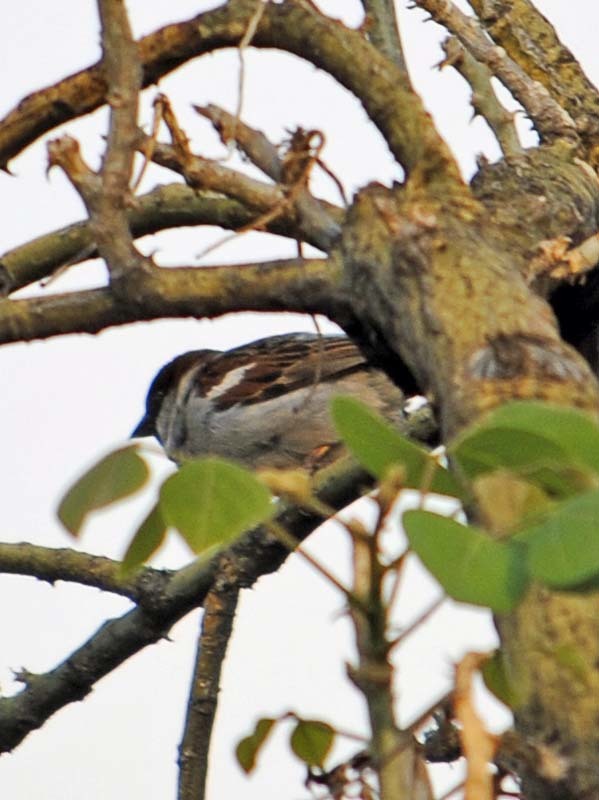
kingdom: Animalia
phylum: Chordata
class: Aves
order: Passeriformes
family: Passeridae
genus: Passer
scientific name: Passer domesticus
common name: House sparrow
